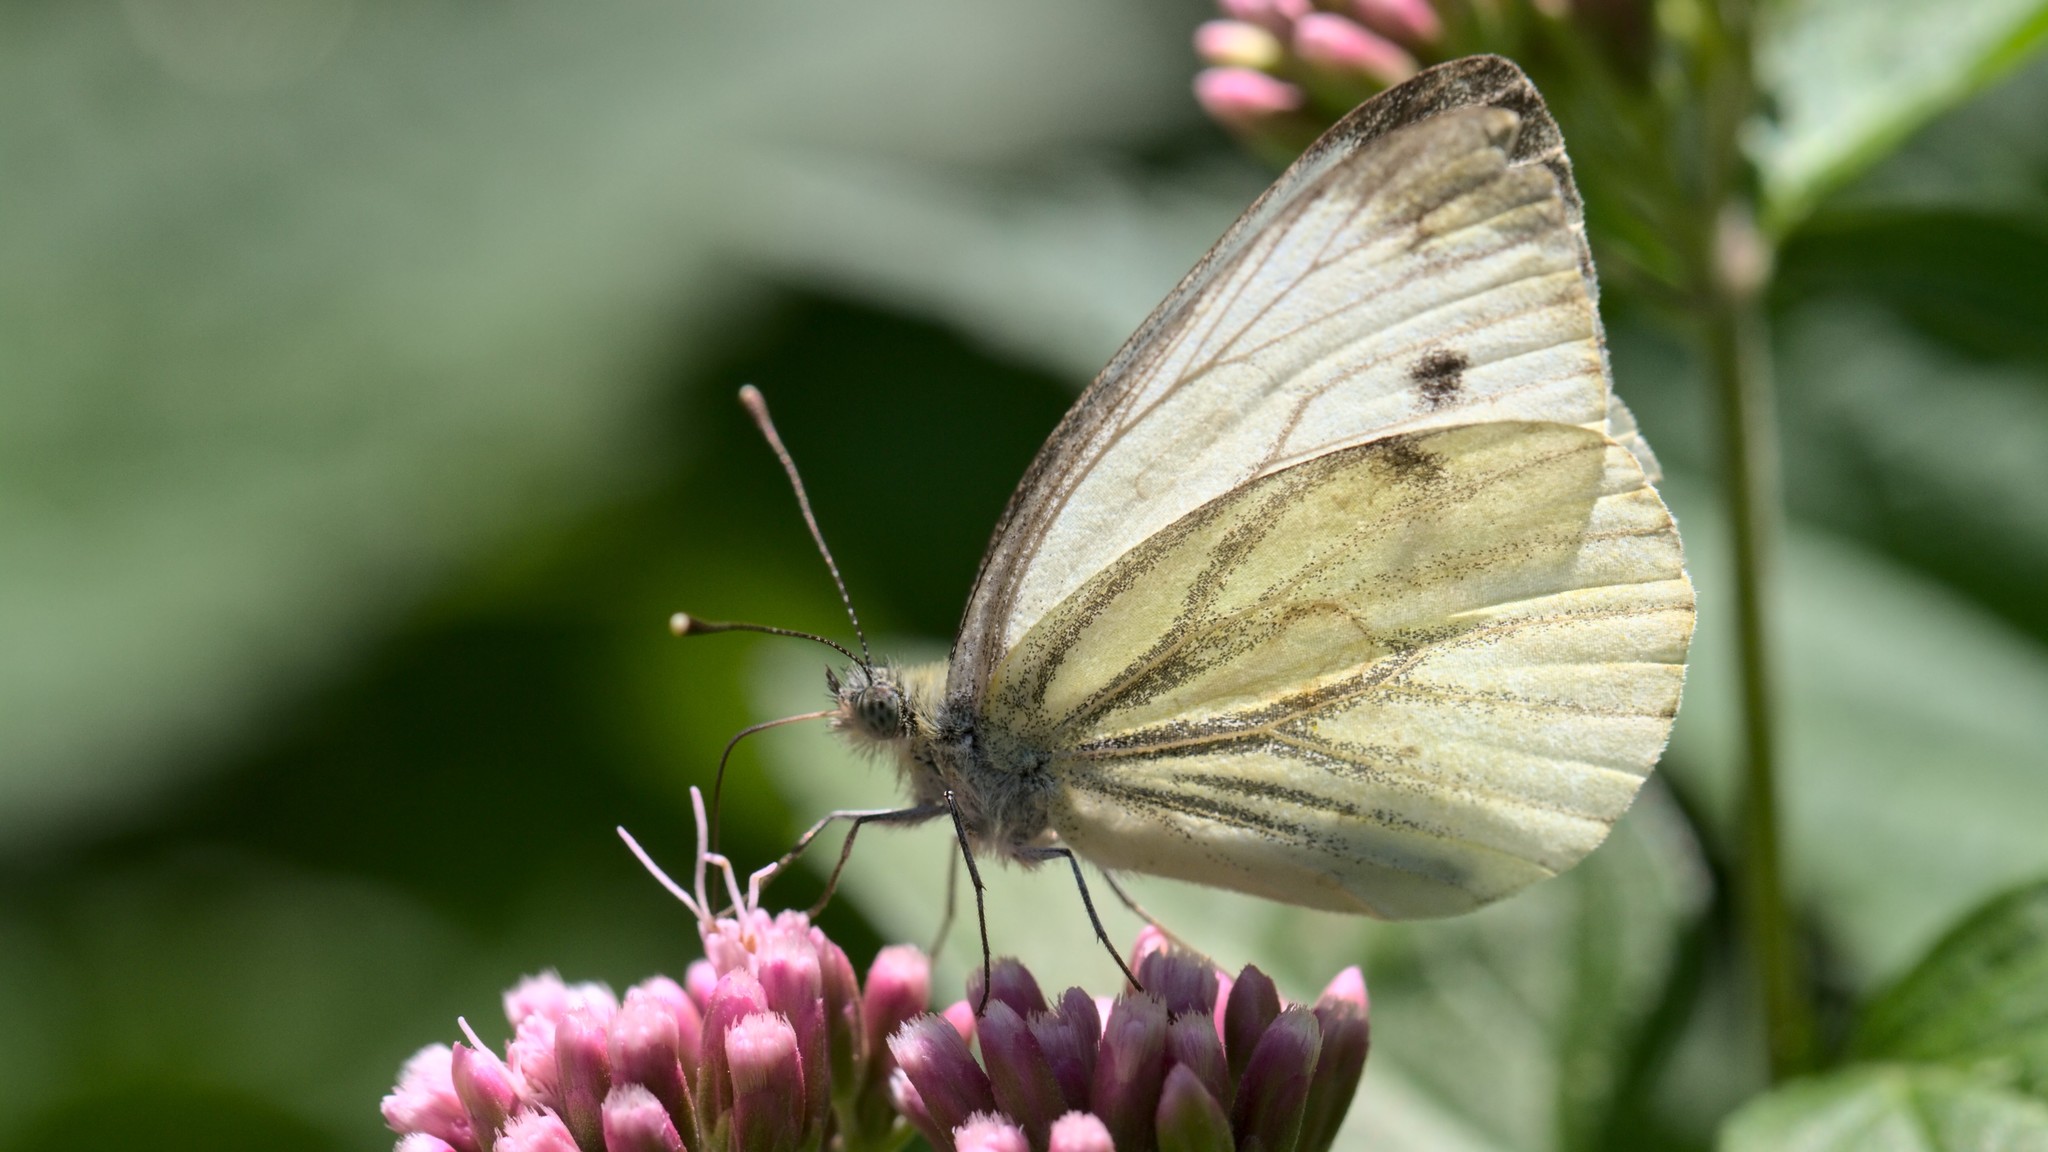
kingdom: Animalia
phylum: Arthropoda
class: Insecta
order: Lepidoptera
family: Pieridae
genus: Pieris
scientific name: Pieris napi
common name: Green-veined white
